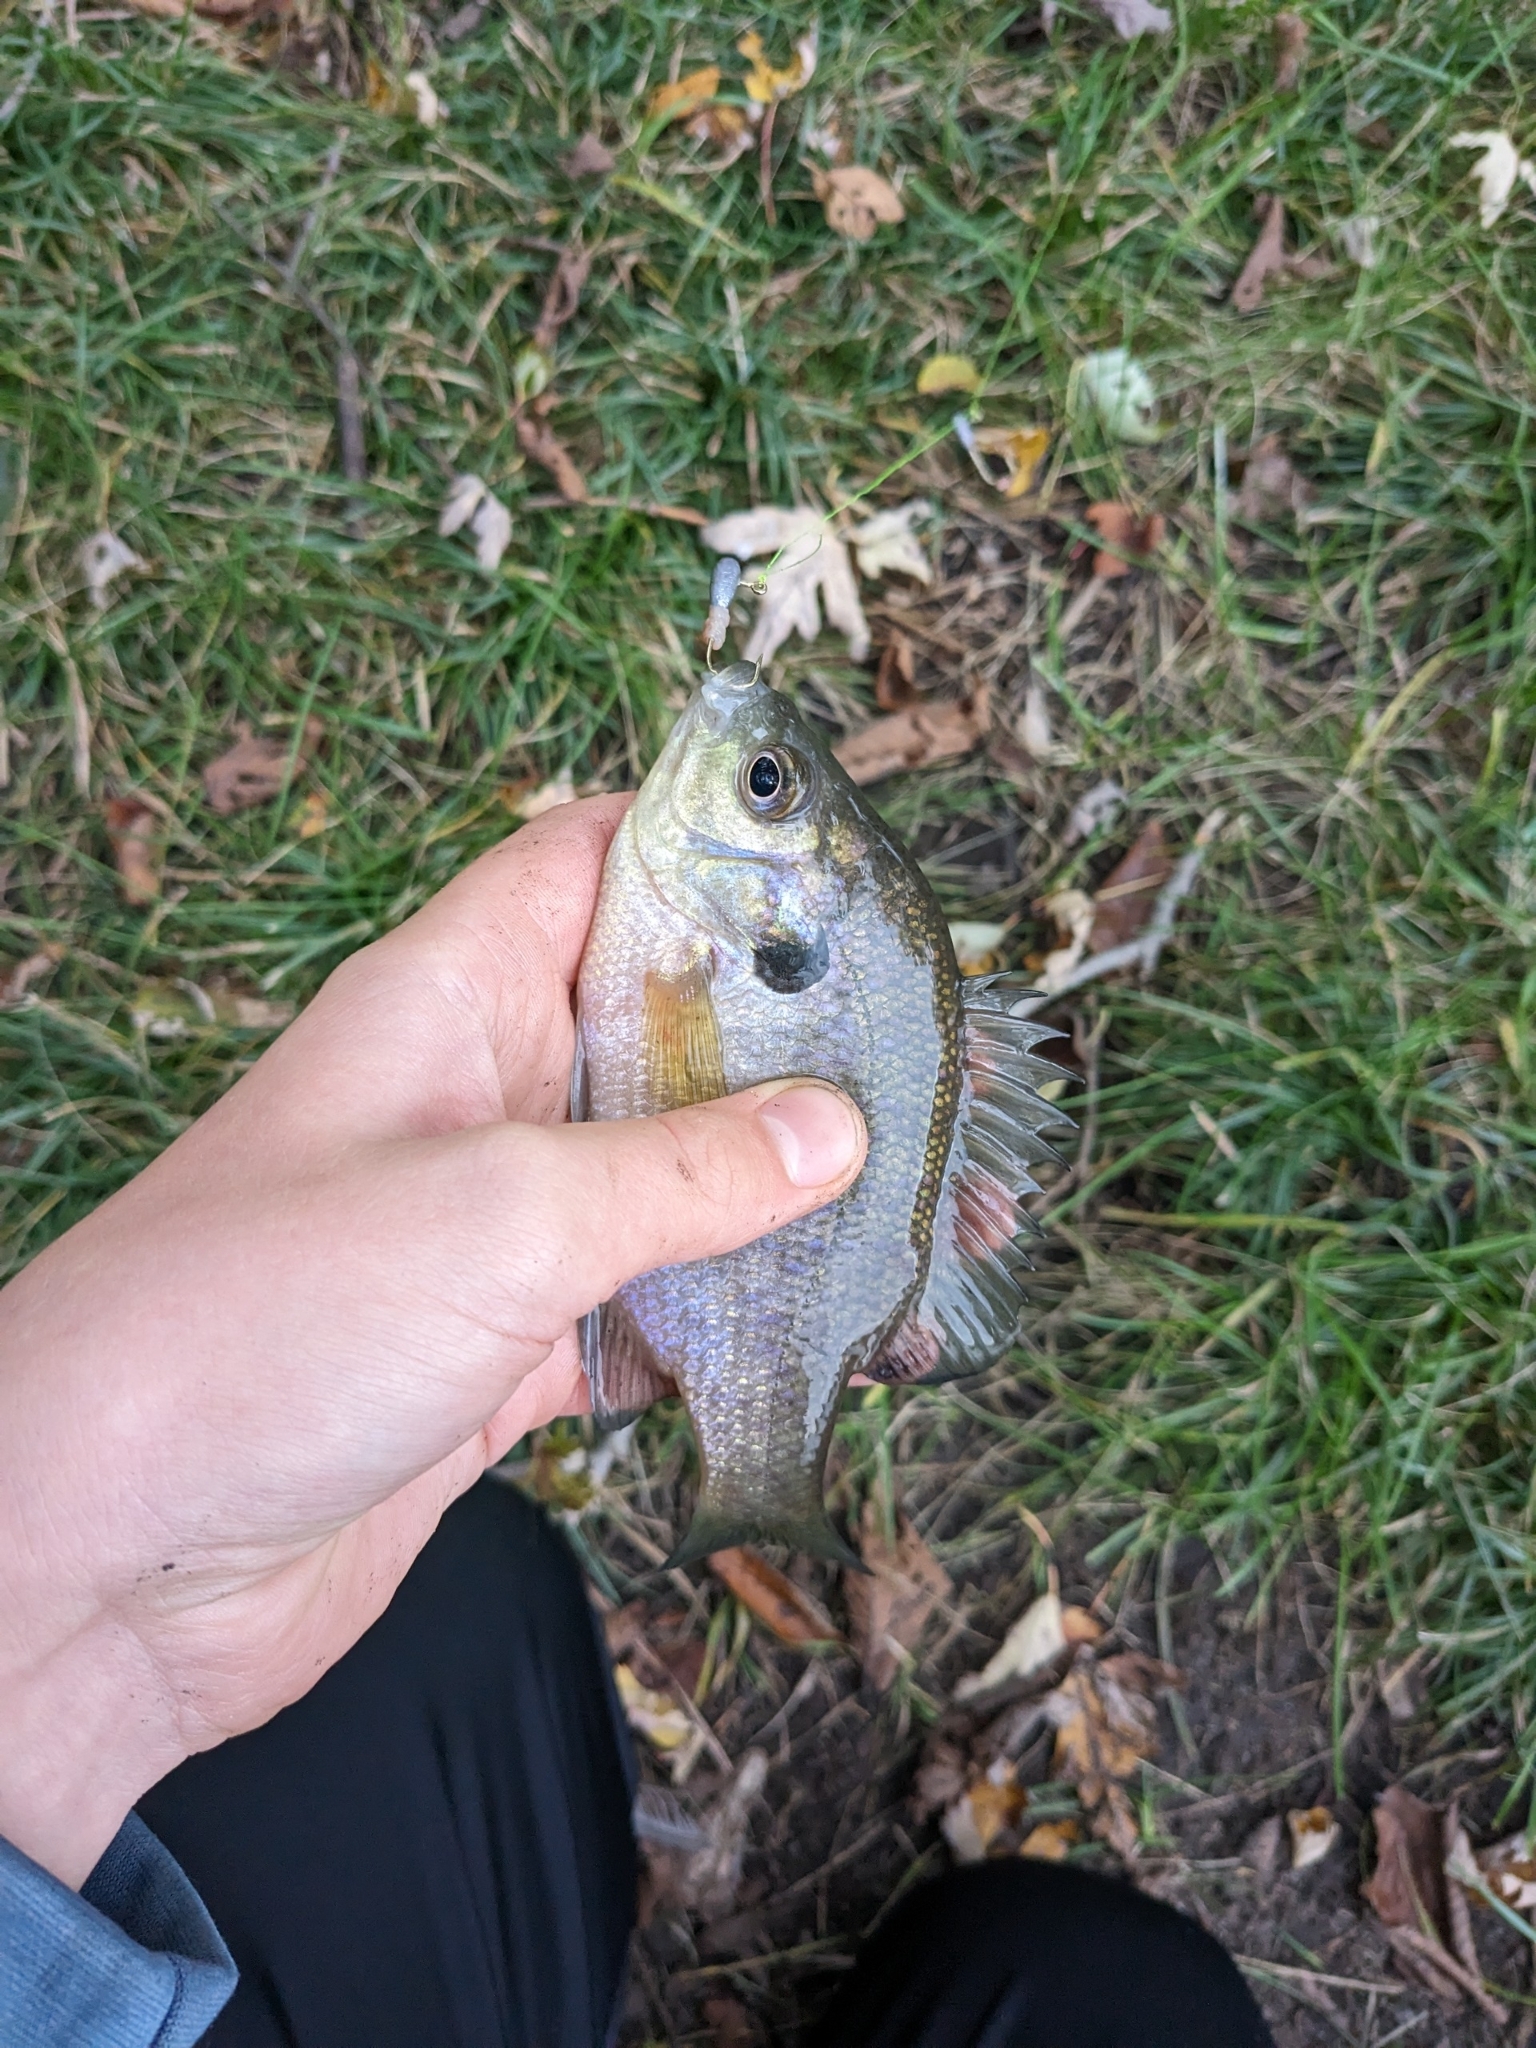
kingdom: Animalia
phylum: Chordata
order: Perciformes
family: Centrarchidae
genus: Lepomis
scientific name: Lepomis macrochirus
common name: Bluegill
